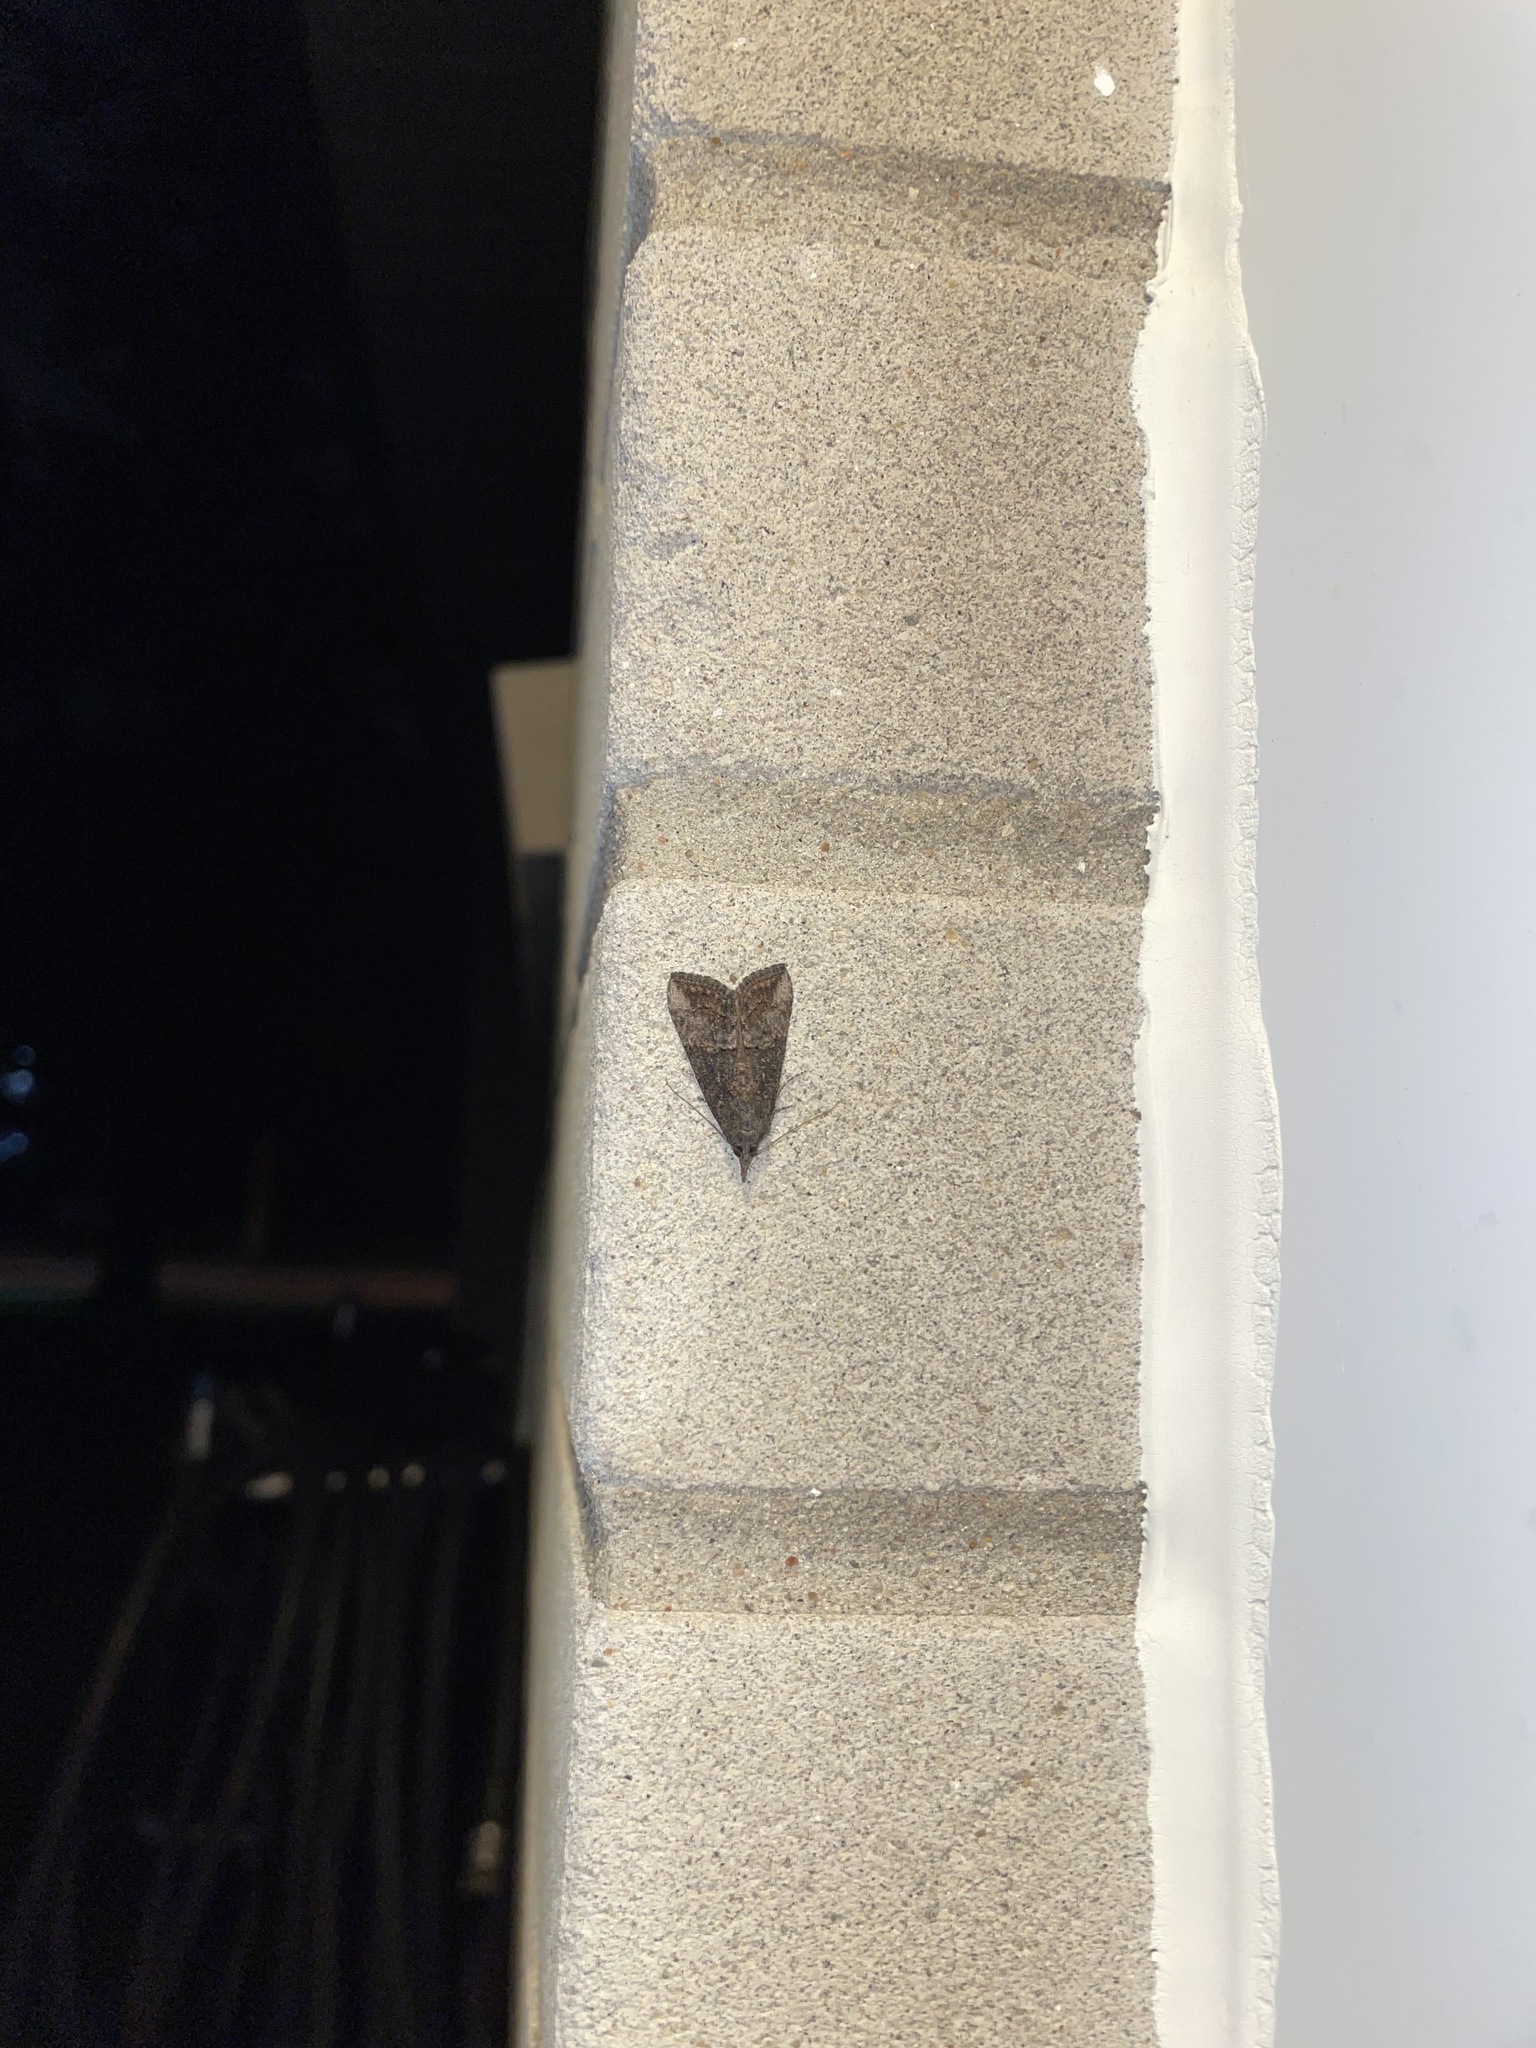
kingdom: Animalia
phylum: Arthropoda
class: Insecta
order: Lepidoptera
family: Erebidae
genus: Hypena
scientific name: Hypena scabra
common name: Green cloverworm
